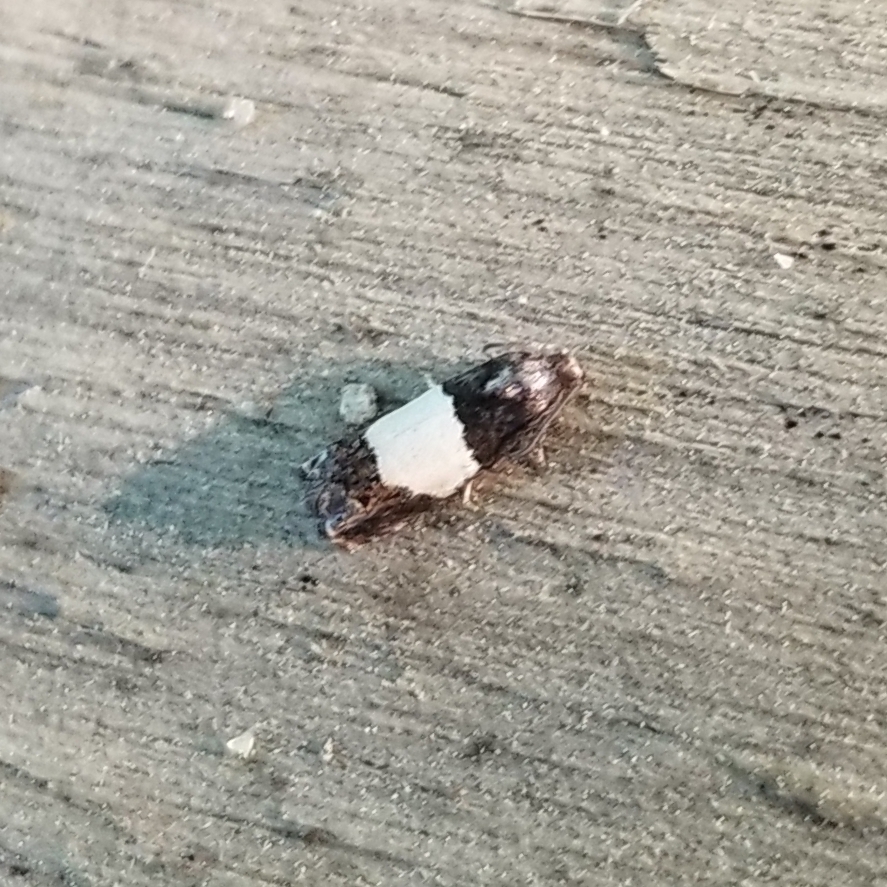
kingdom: Animalia
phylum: Arthropoda
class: Insecta
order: Lepidoptera
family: Tortricidae
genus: Epiblema
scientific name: Epiblema tripartitana
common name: Three-parted epiblema moth
